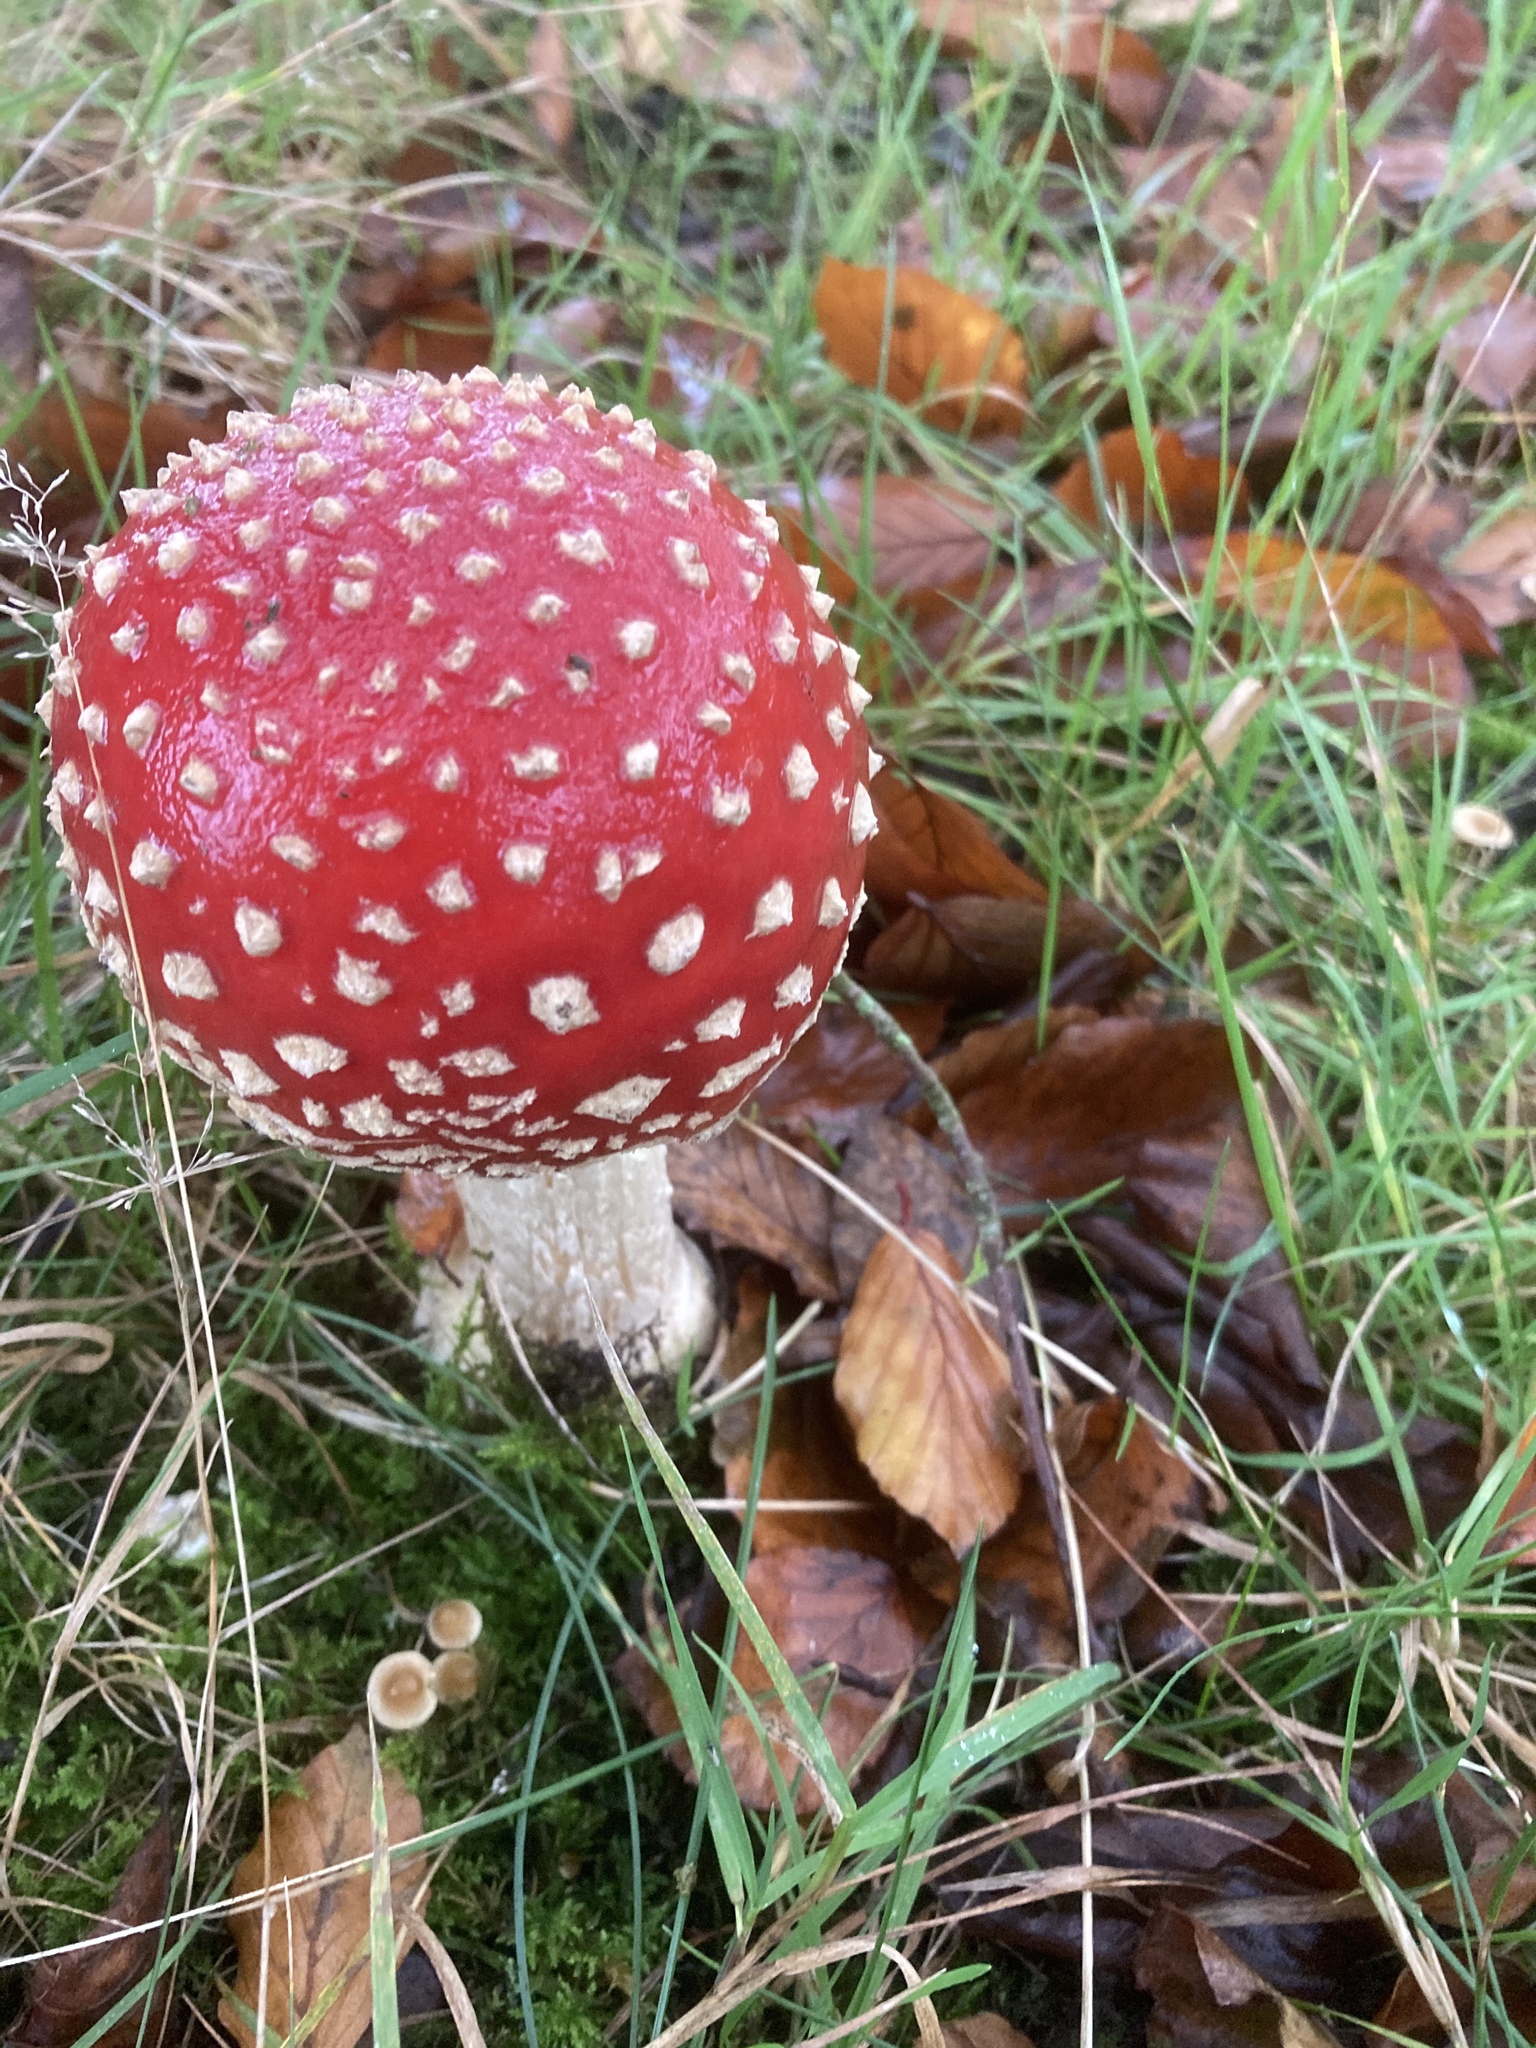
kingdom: Fungi
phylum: Basidiomycota
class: Agaricomycetes
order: Agaricales
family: Amanitaceae
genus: Amanita
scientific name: Amanita muscaria
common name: Fly agaric
